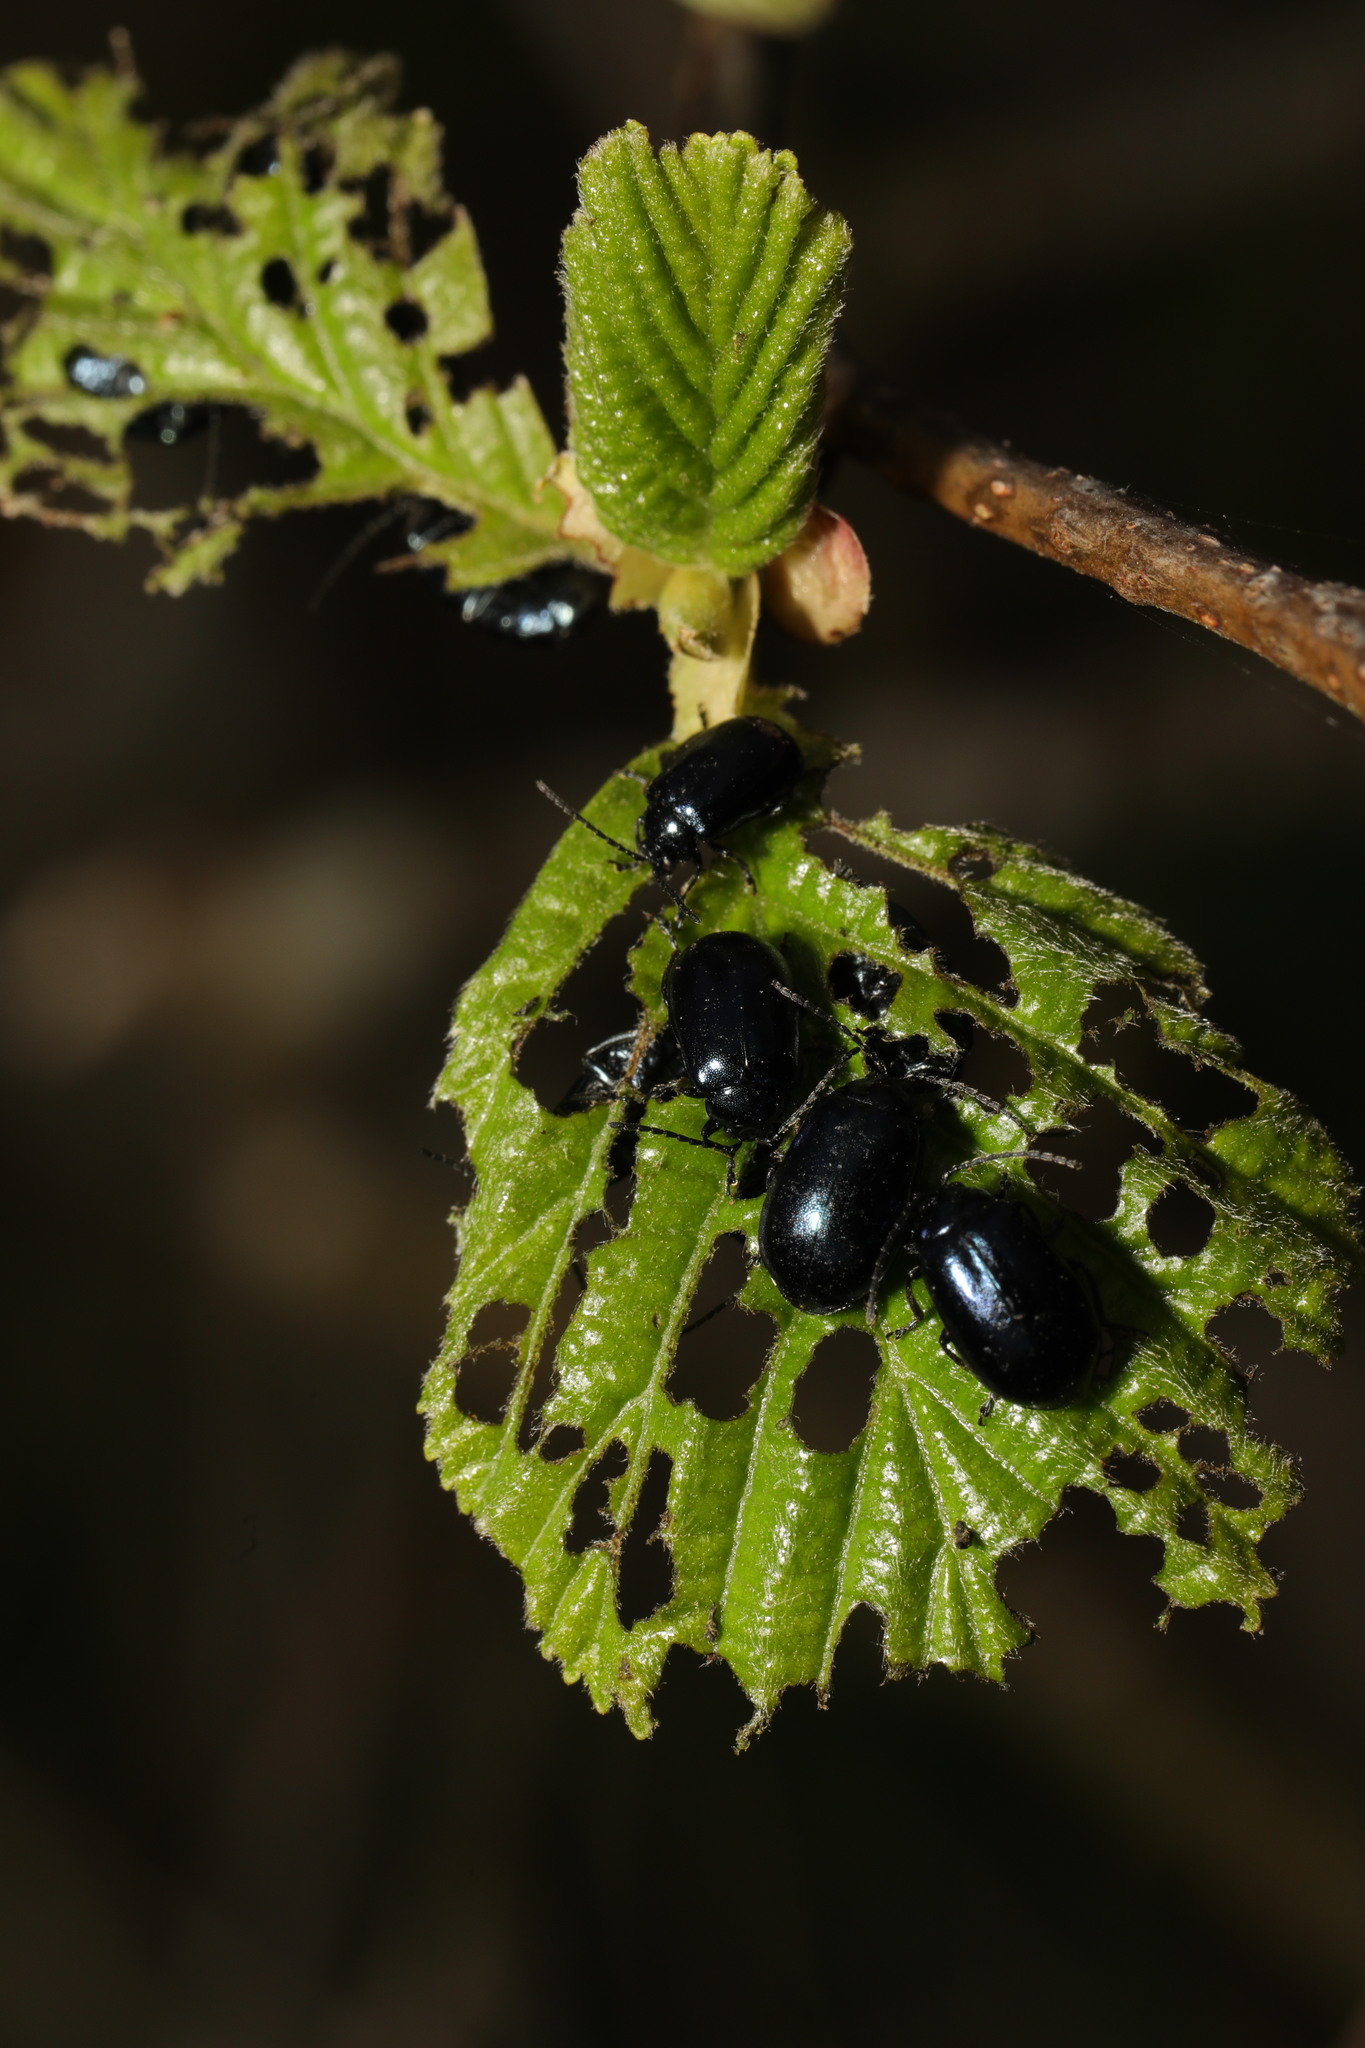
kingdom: Animalia
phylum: Arthropoda
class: Insecta
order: Coleoptera
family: Chrysomelidae
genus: Agelastica
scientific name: Agelastica alni
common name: Alder leaf beetle
